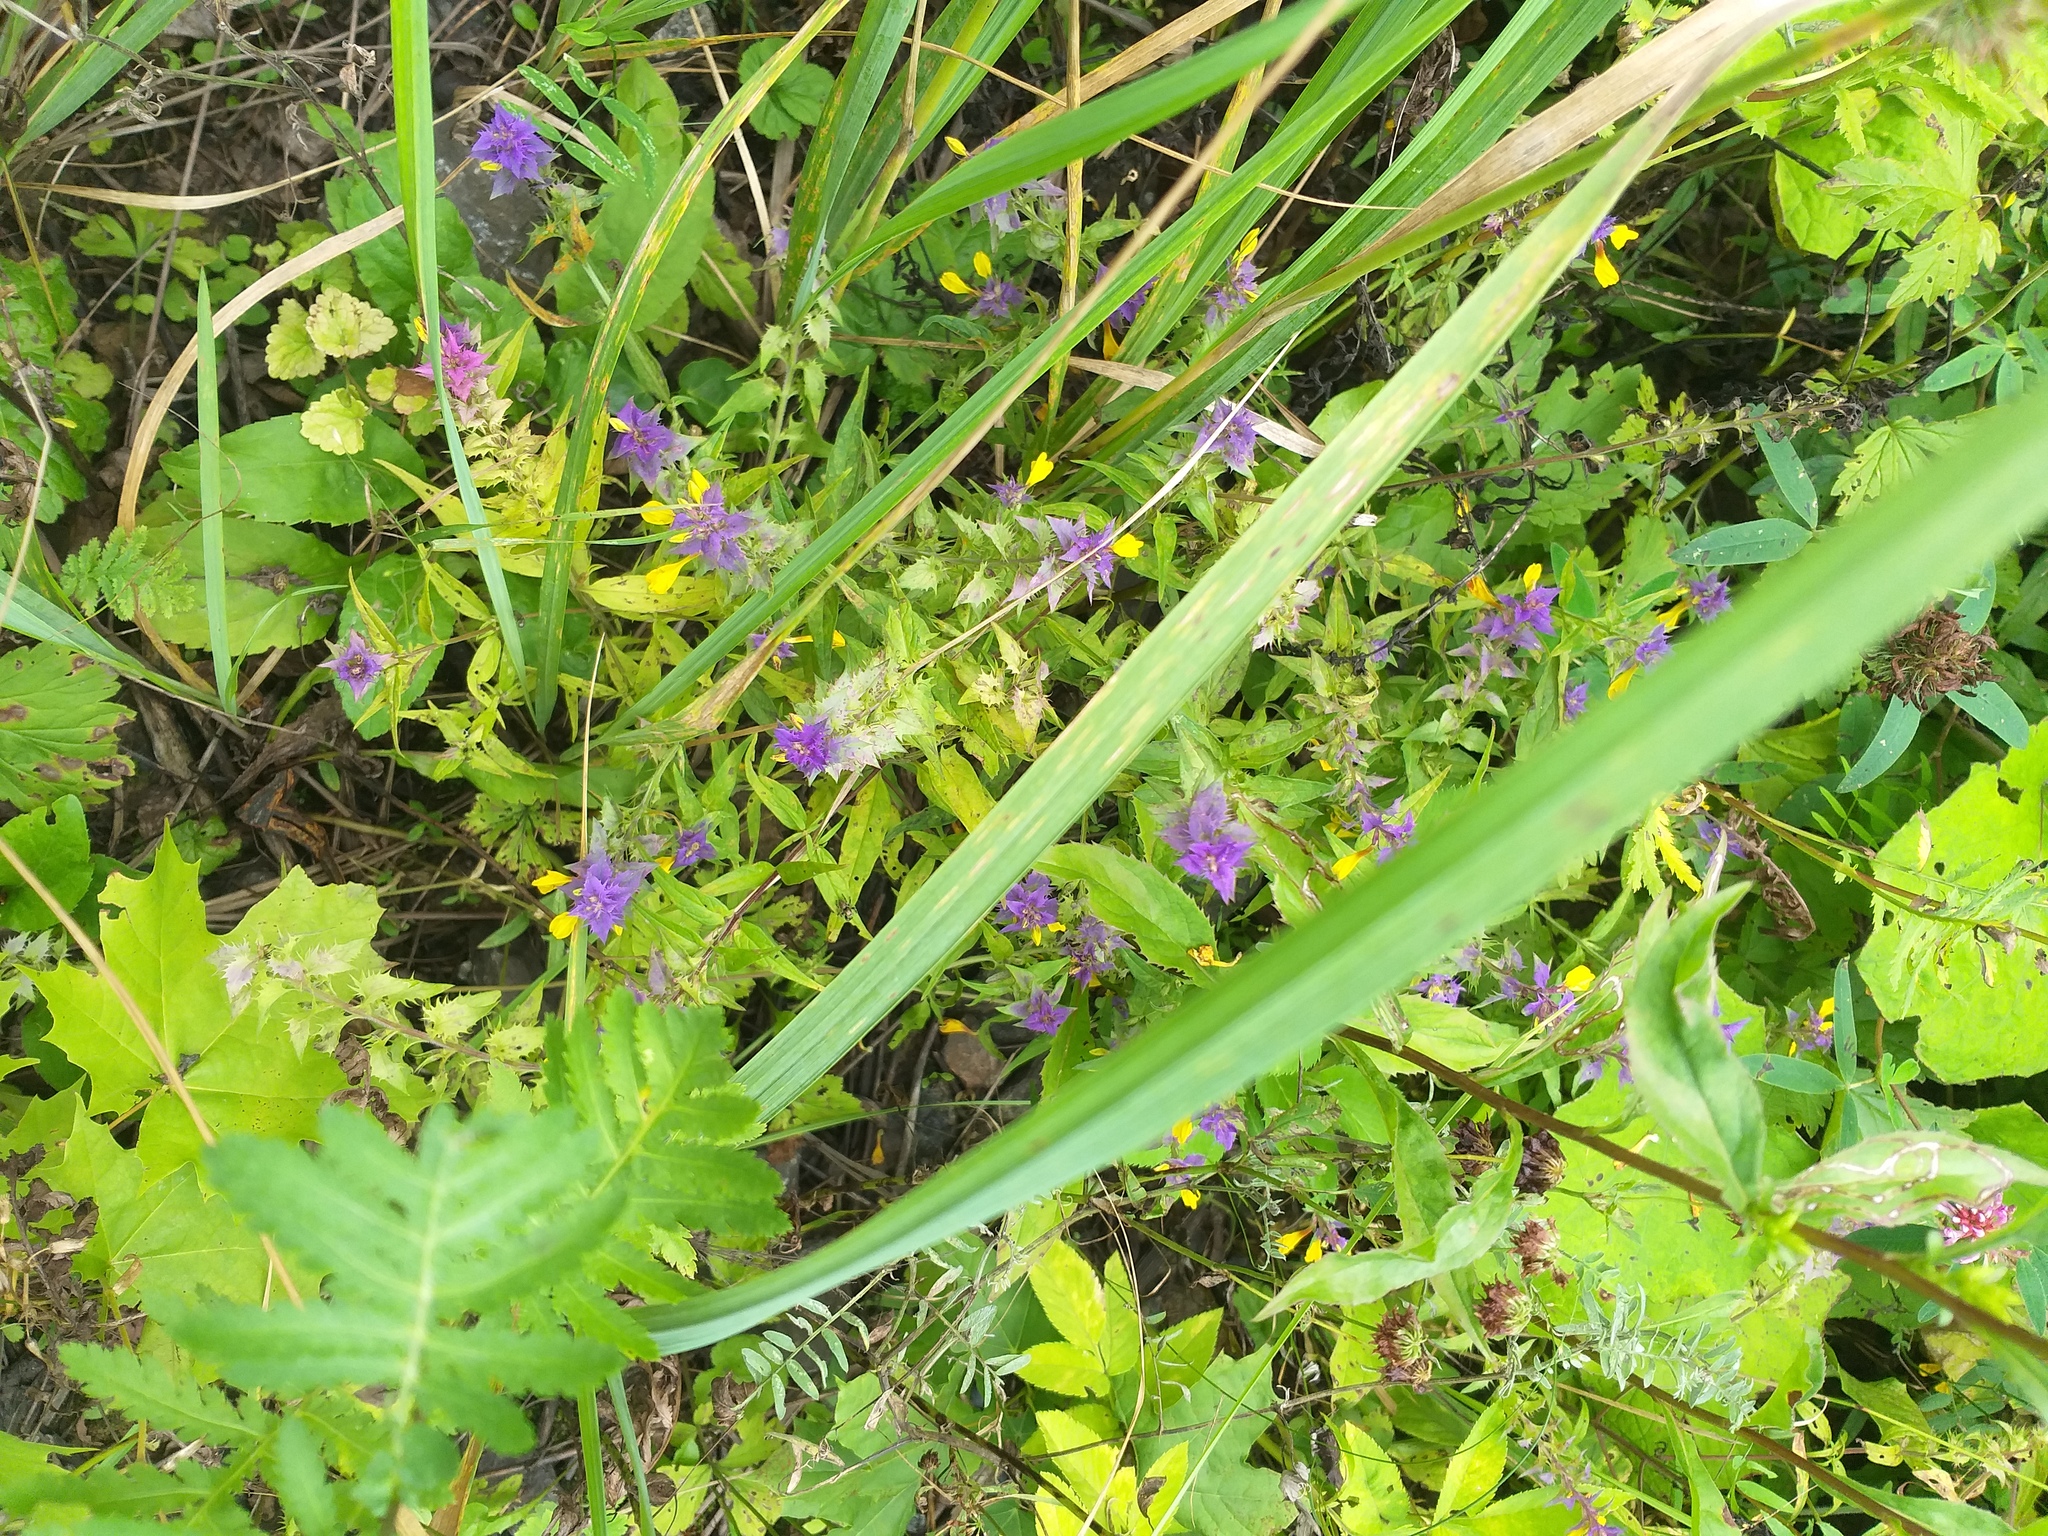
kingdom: Plantae
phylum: Tracheophyta
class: Magnoliopsida
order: Lamiales
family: Orobanchaceae
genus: Melampyrum
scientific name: Melampyrum nemorosum
